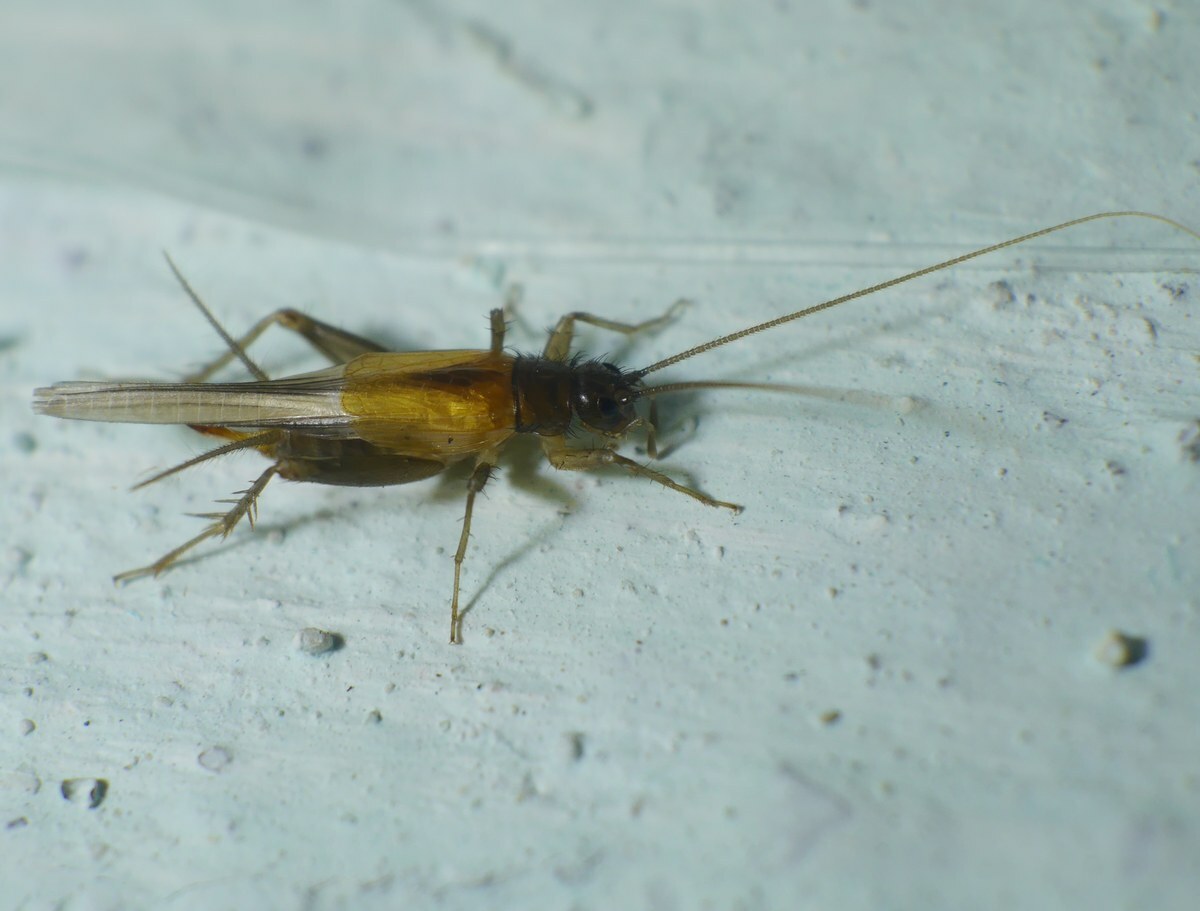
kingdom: Animalia
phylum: Arthropoda
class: Insecta
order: Orthoptera
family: Trigonidiidae
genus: Stenonemobius
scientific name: Stenonemobius bicolor
